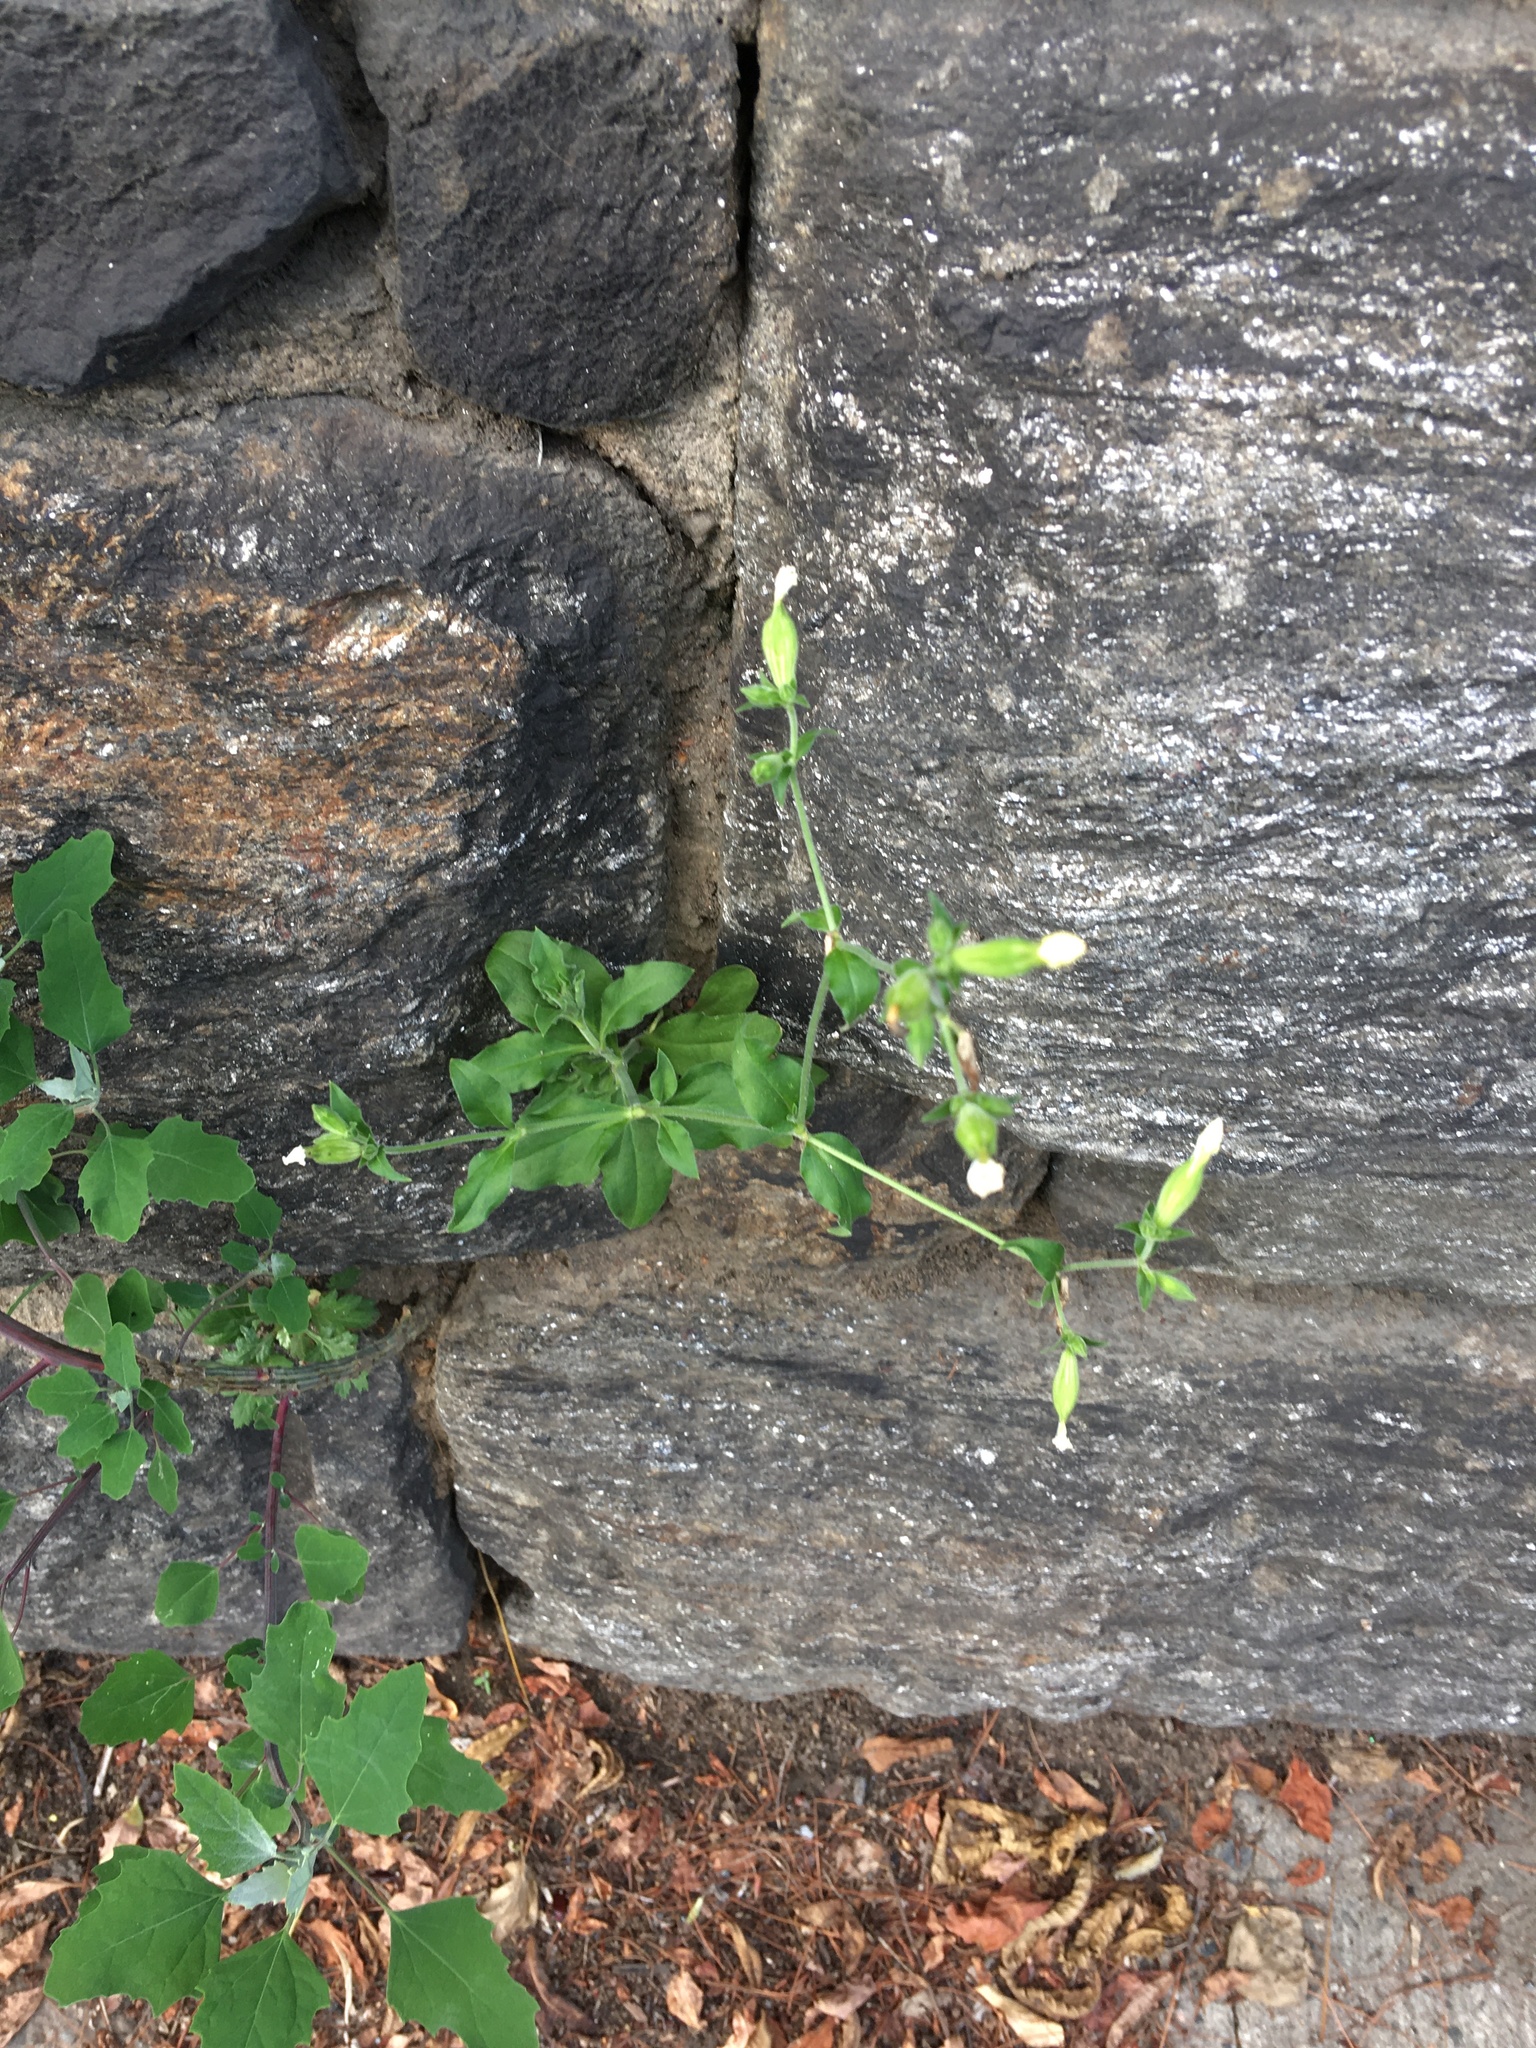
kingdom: Plantae
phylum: Tracheophyta
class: Magnoliopsida
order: Caryophyllales
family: Caryophyllaceae
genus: Silene
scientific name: Silene latifolia
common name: White campion
